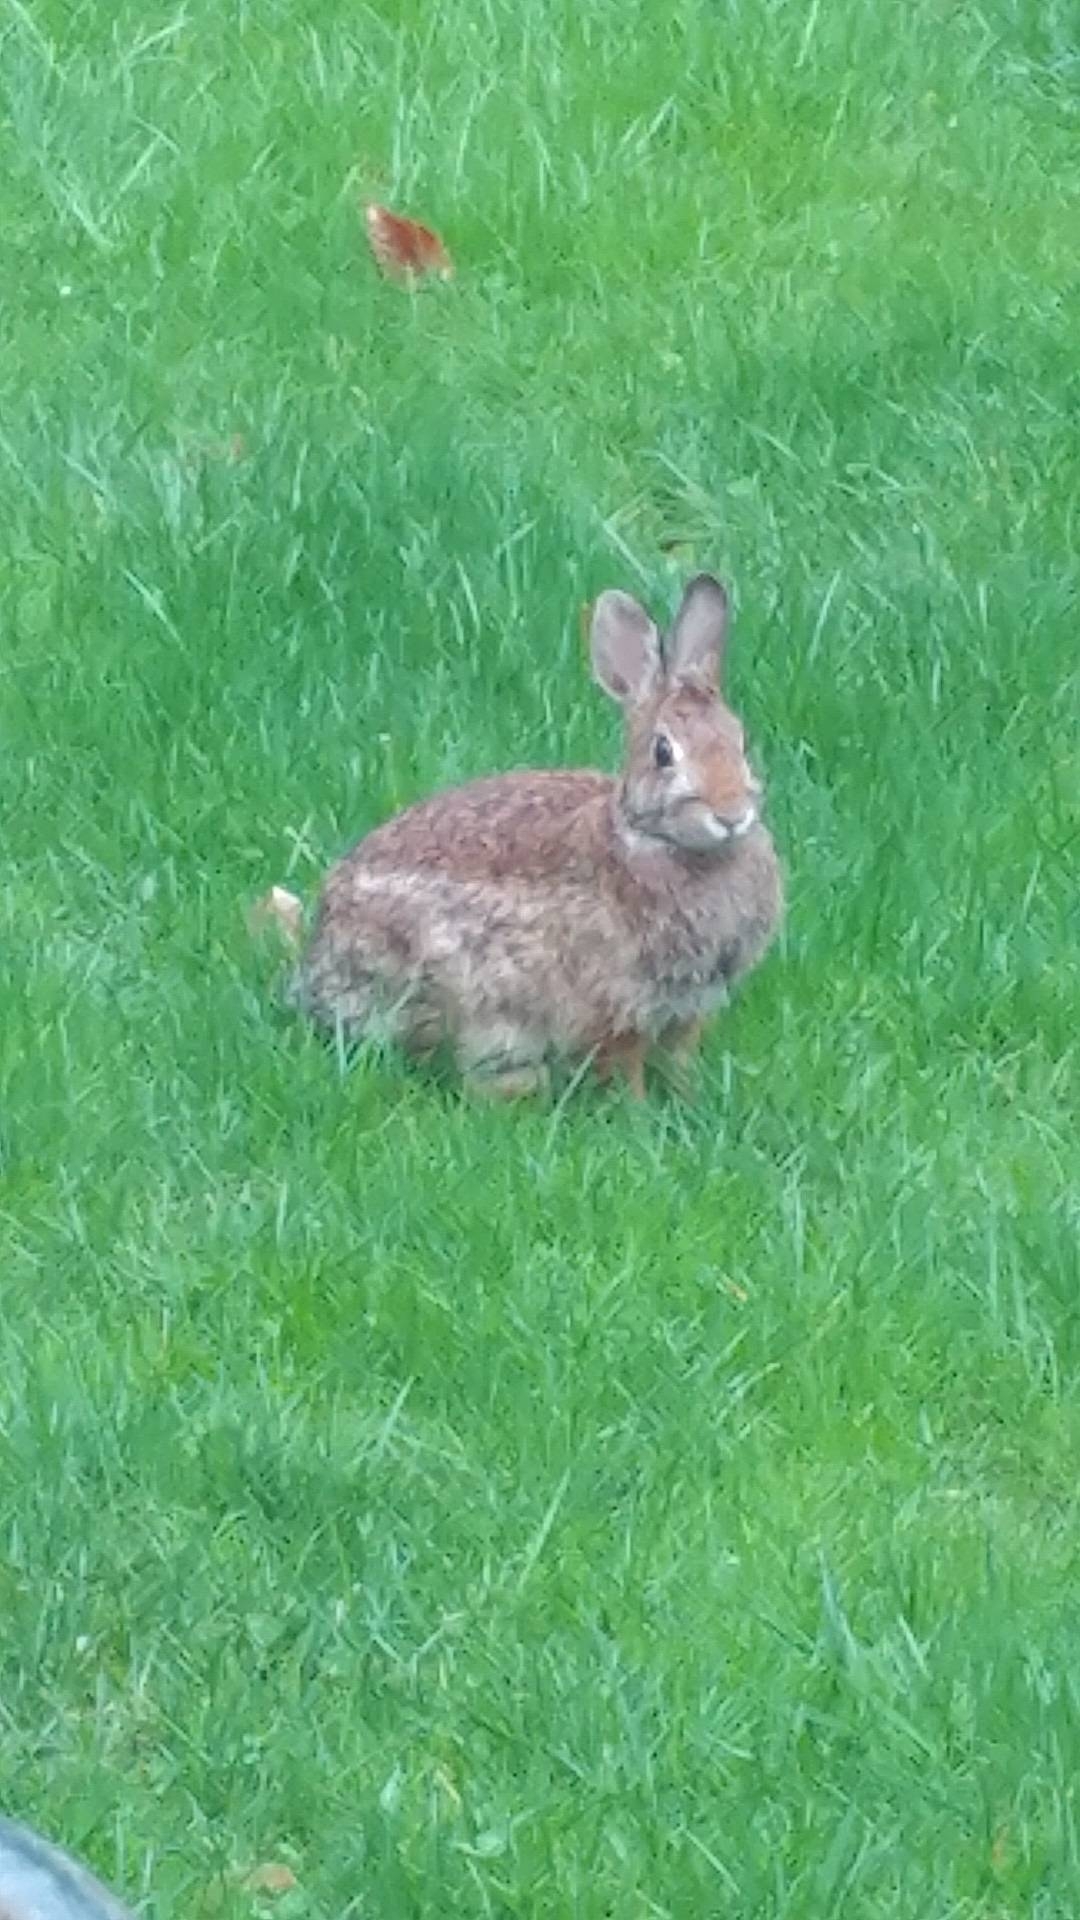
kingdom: Animalia
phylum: Chordata
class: Mammalia
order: Lagomorpha
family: Leporidae
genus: Sylvilagus
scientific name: Sylvilagus floridanus
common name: Eastern cottontail
